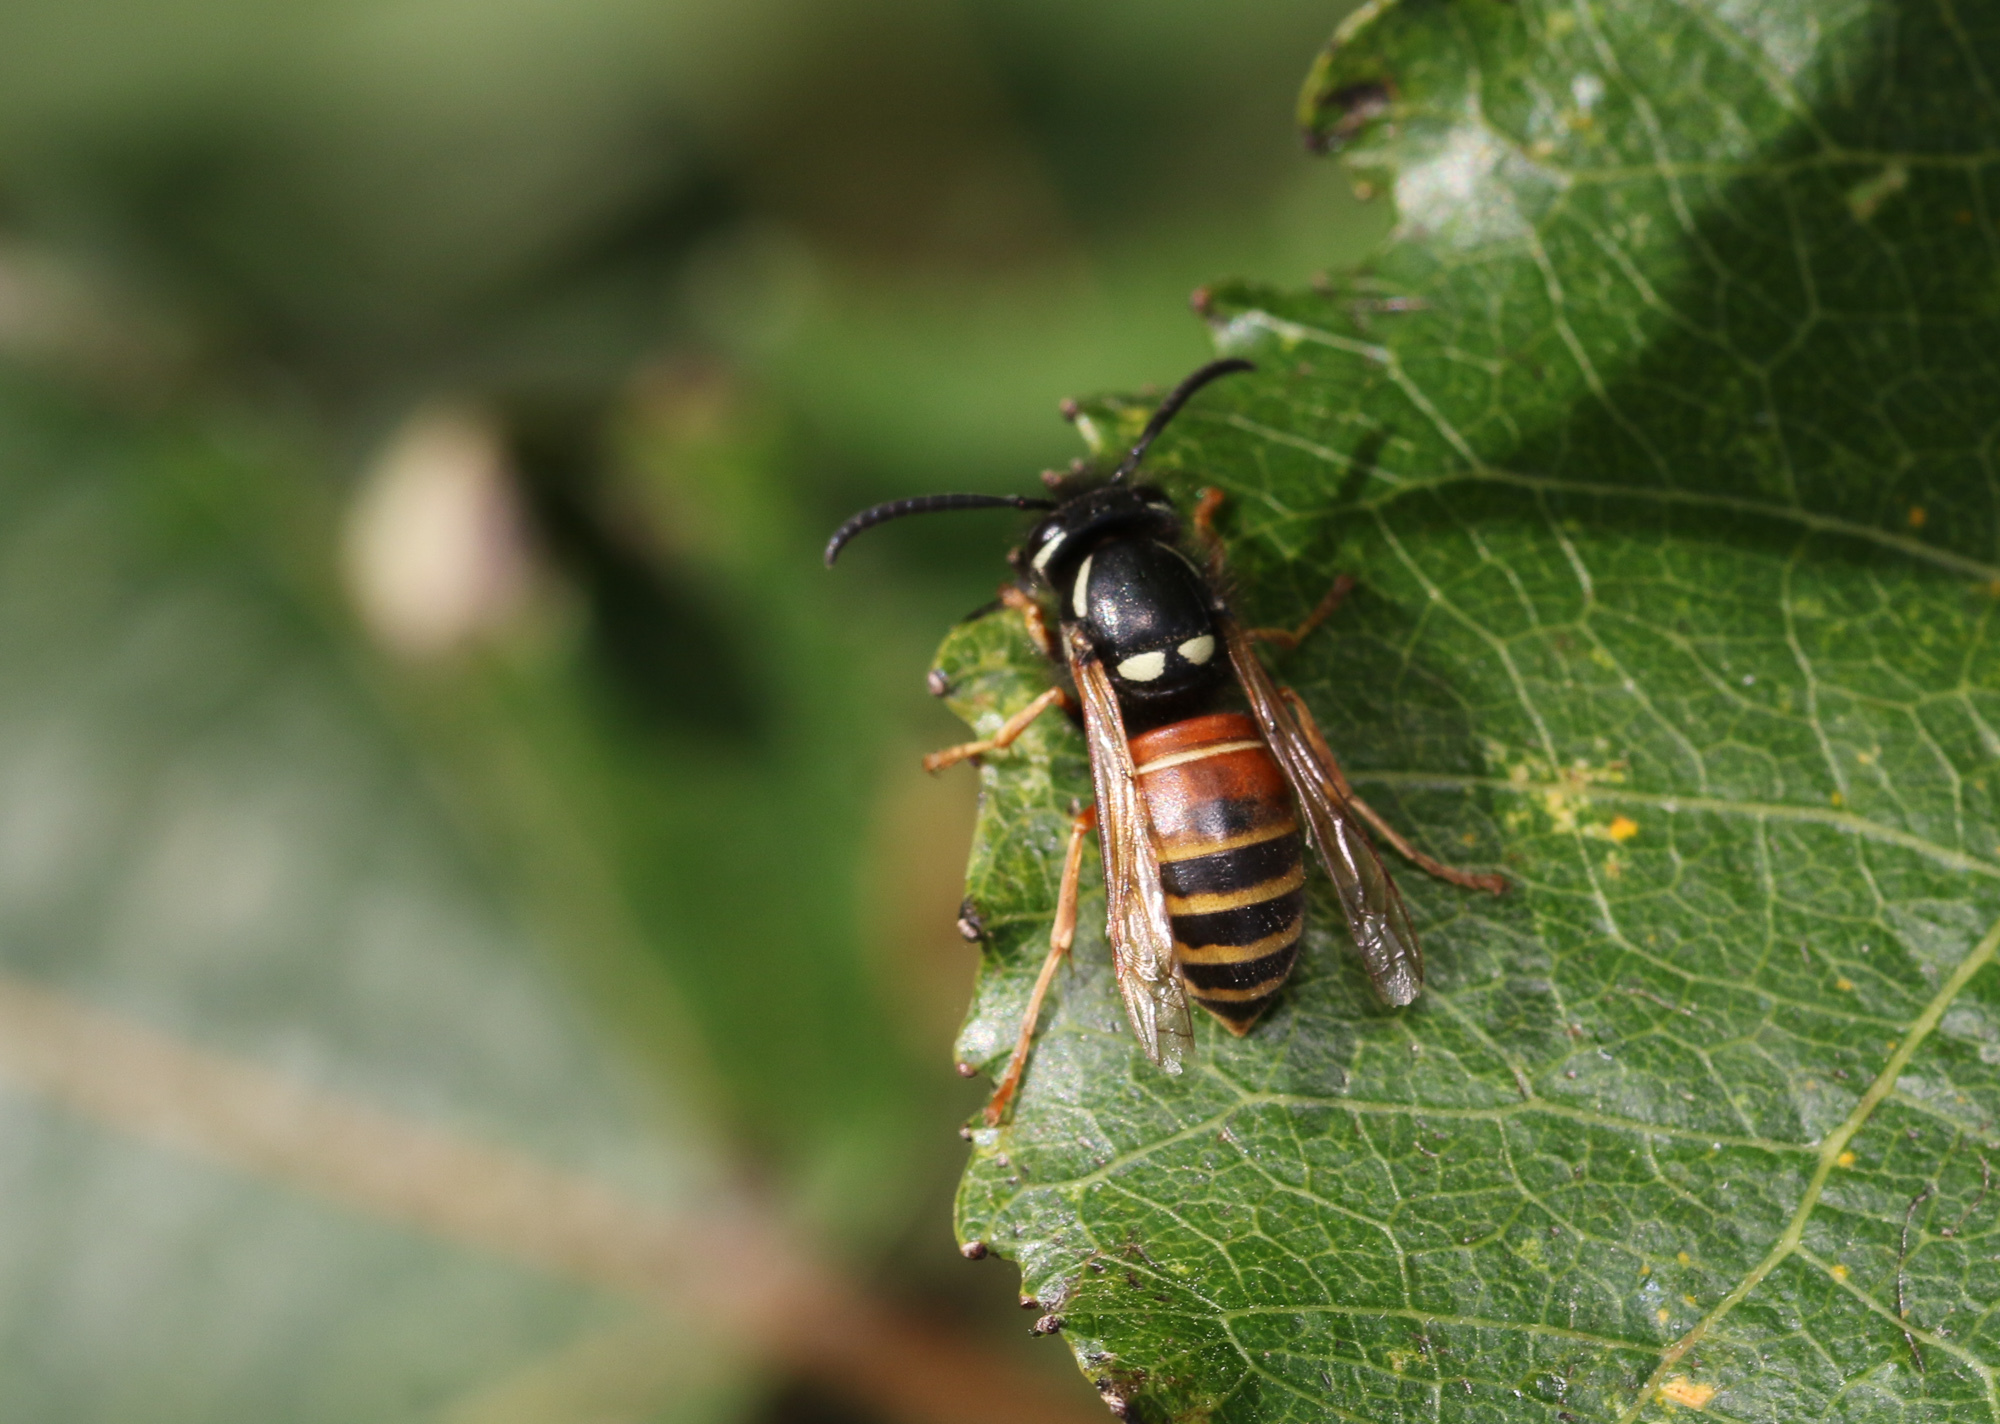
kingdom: Animalia
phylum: Arthropoda
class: Insecta
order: Hymenoptera
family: Vespidae
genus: Vespula
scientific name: Vespula rufa
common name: Red wasp
